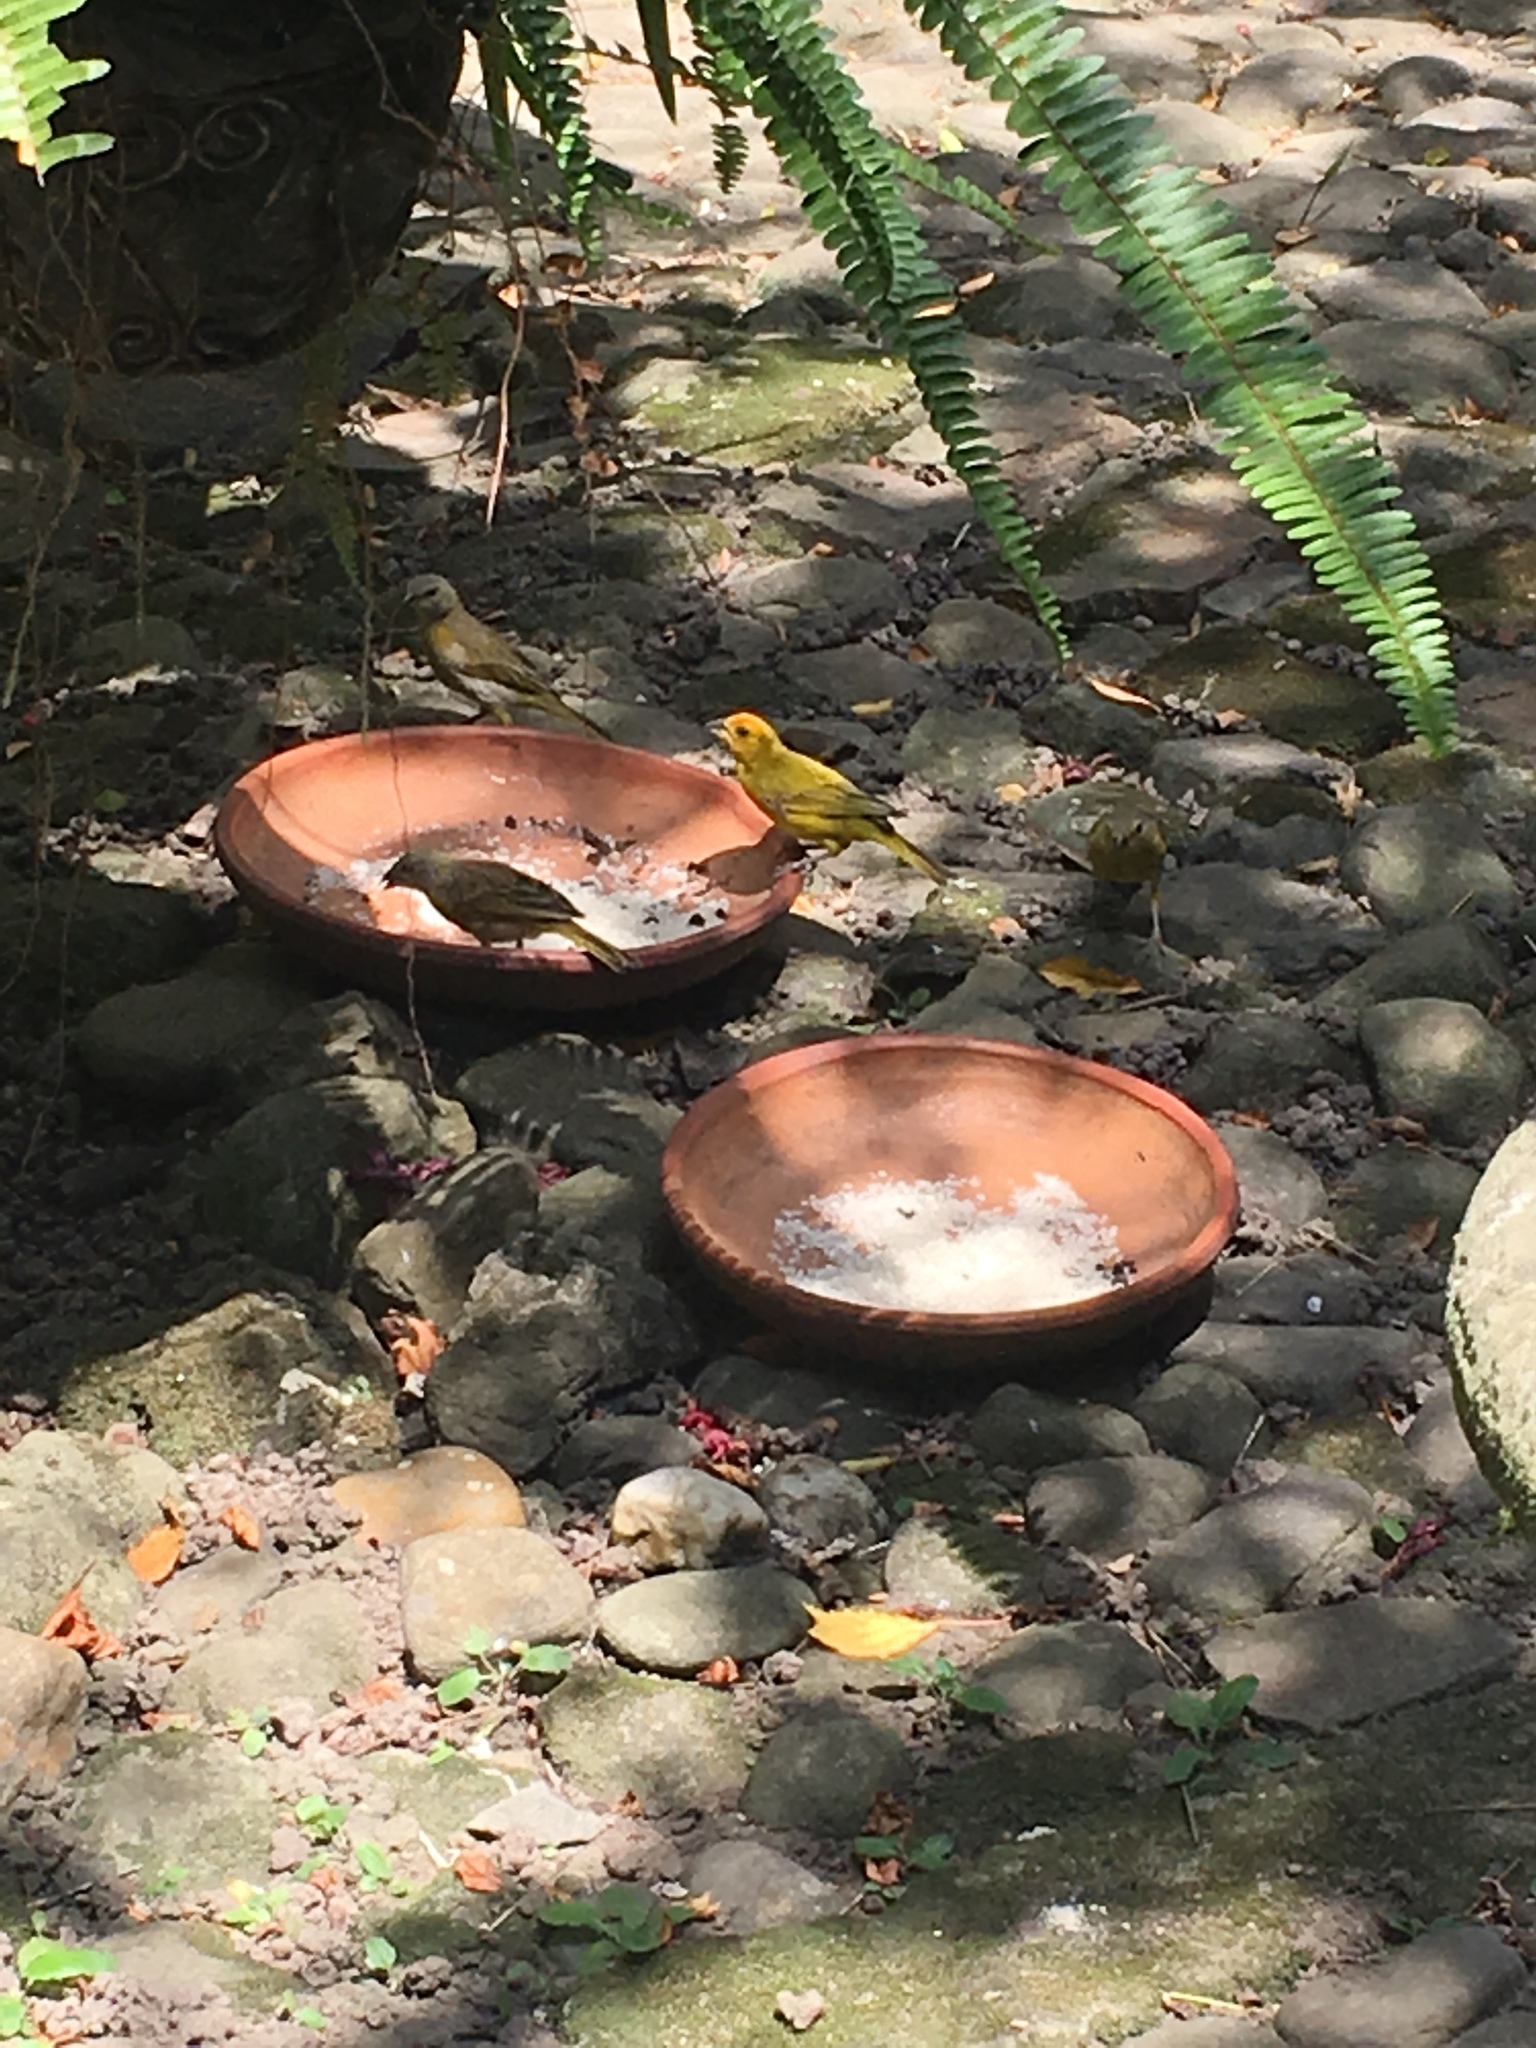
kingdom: Animalia
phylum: Chordata
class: Aves
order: Passeriformes
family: Thraupidae
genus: Sicalis
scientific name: Sicalis flaveola
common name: Saffron finch
